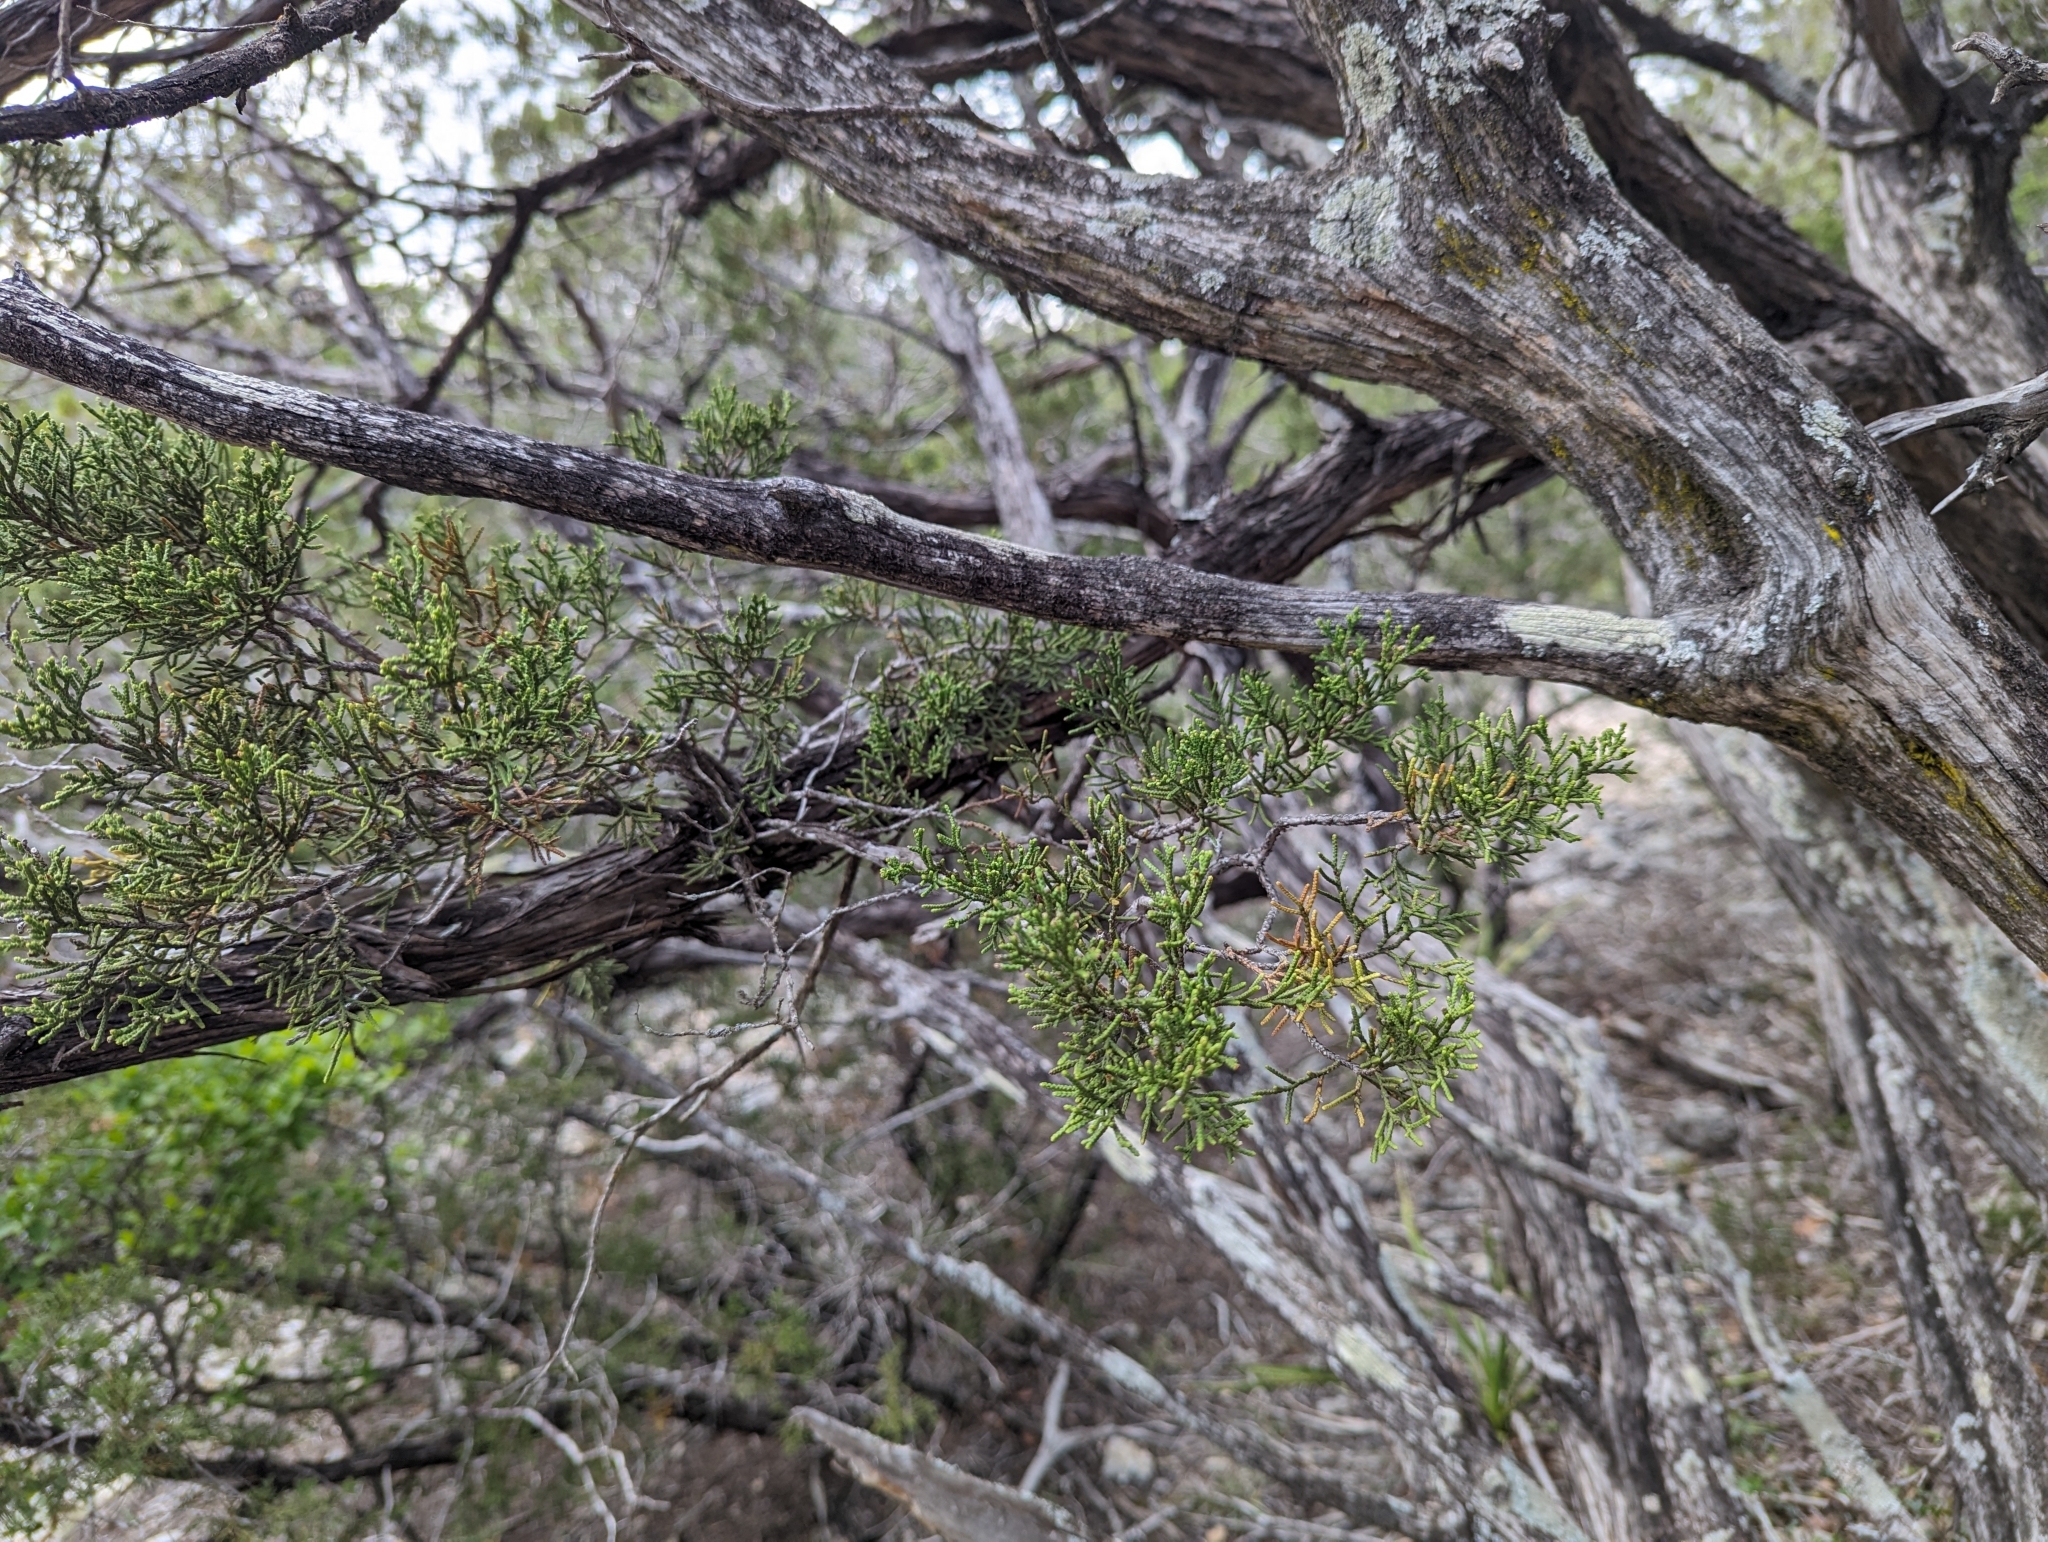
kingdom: Plantae
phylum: Tracheophyta
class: Pinopsida
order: Pinales
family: Cupressaceae
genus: Juniperus
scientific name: Juniperus ashei
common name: Mexican juniper
